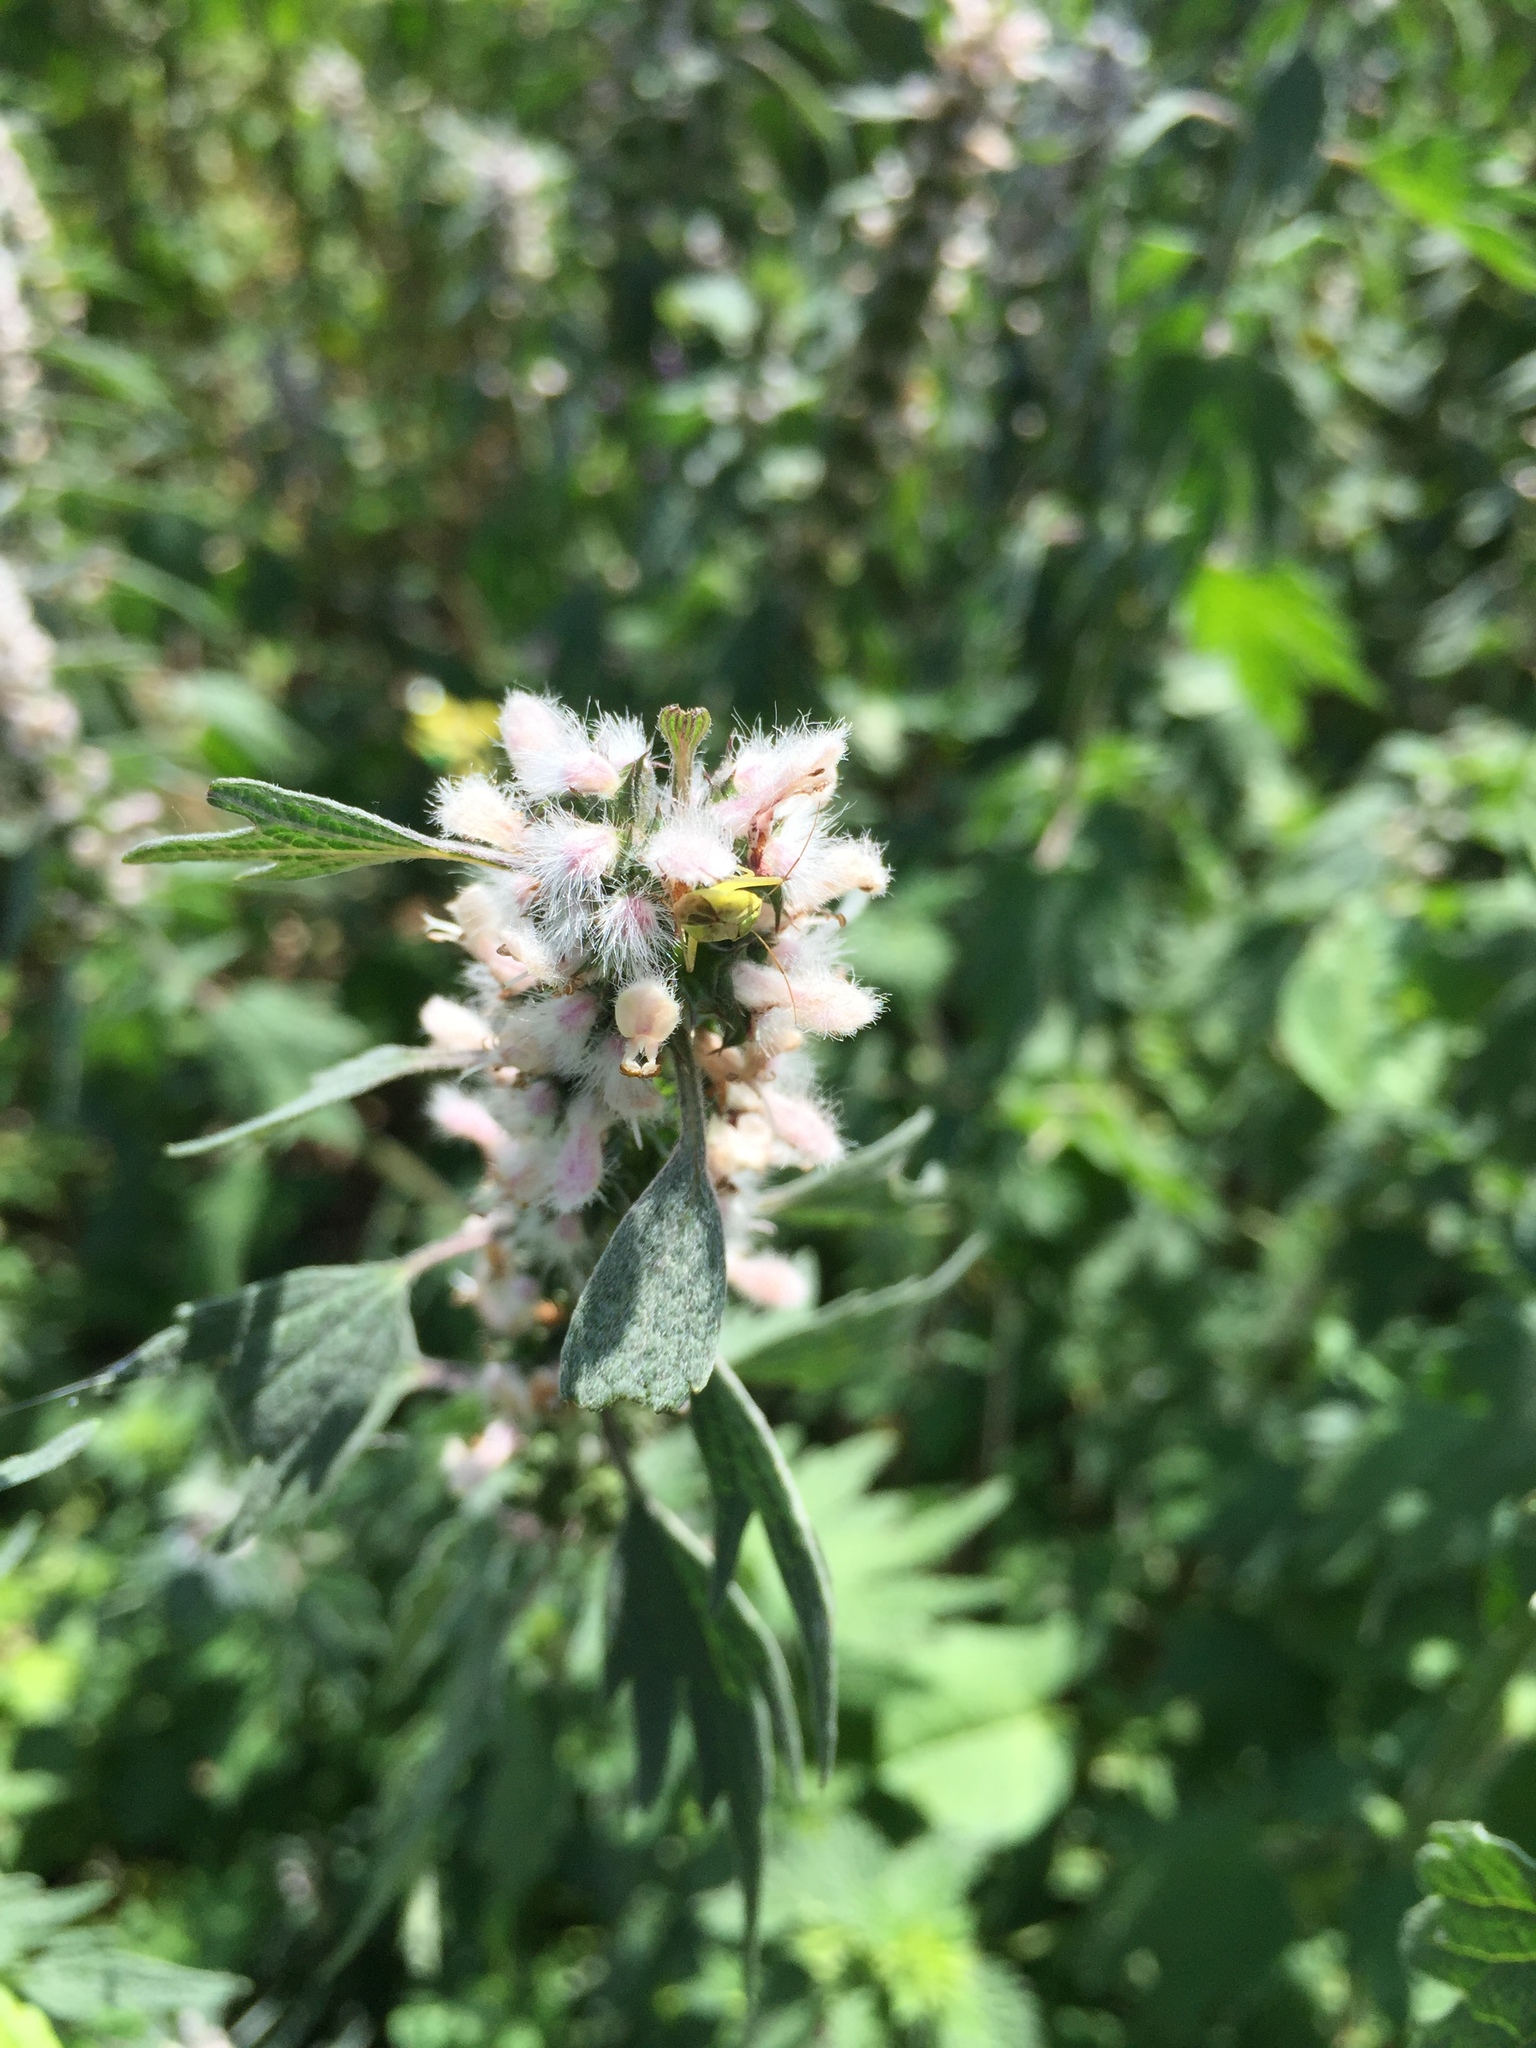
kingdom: Plantae
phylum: Tracheophyta
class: Magnoliopsida
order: Lamiales
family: Lamiaceae
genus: Leonurus
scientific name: Leonurus cardiaca
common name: Motherwort
